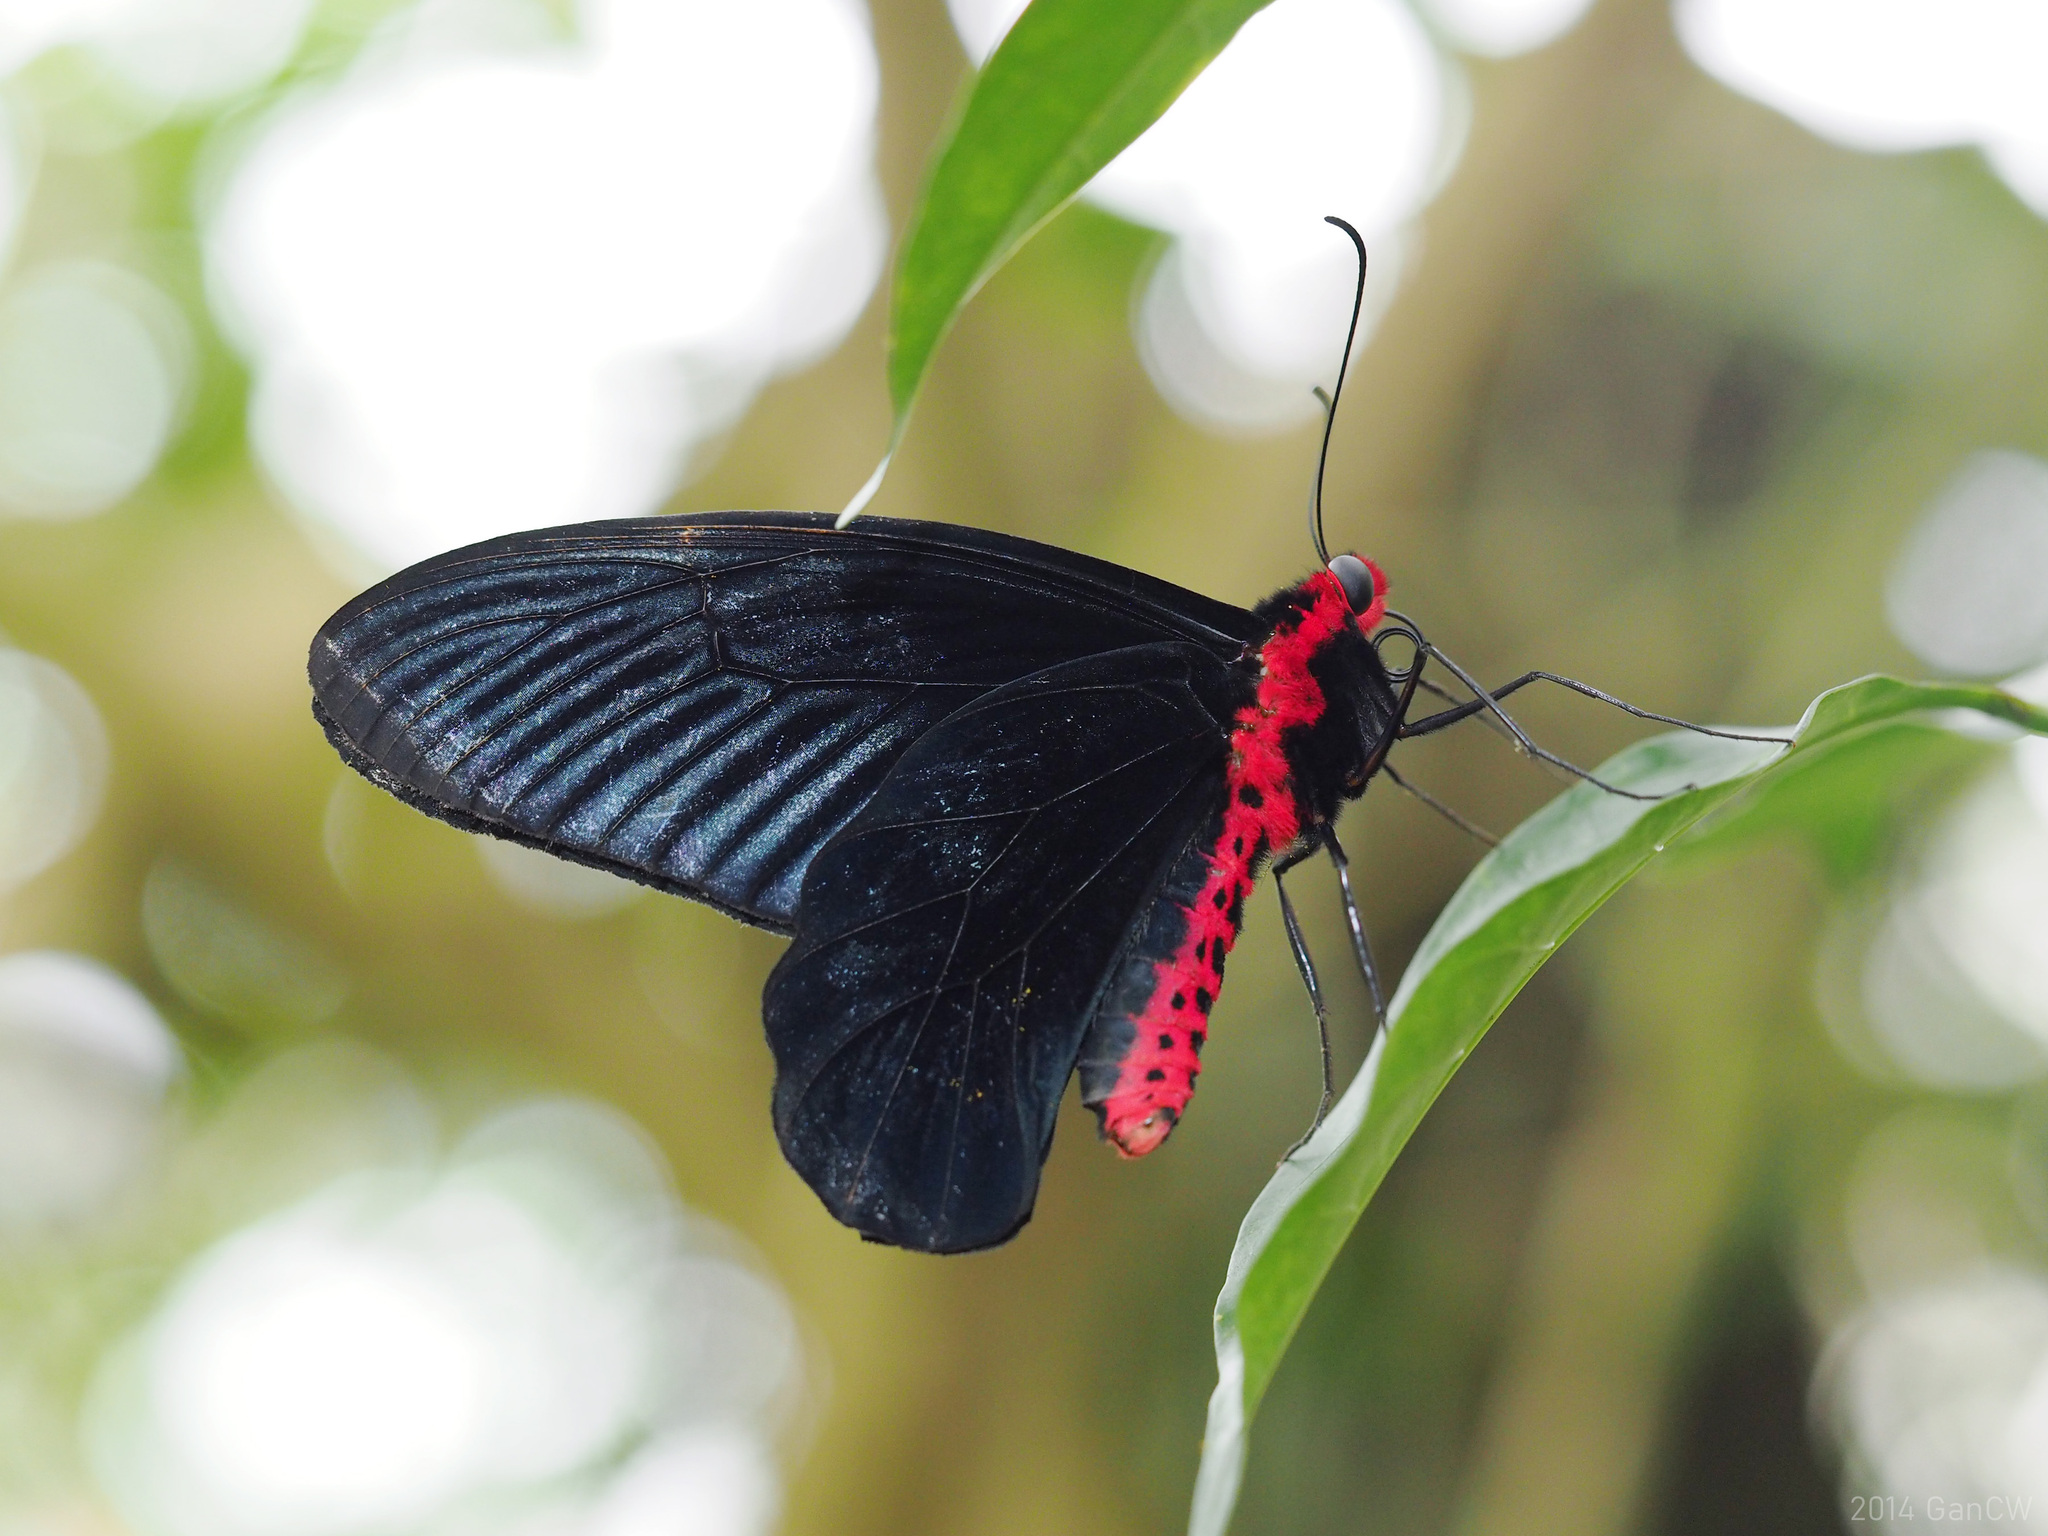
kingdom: Animalia
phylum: Arthropoda
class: Insecta
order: Lepidoptera
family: Papilionidae
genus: Atrophaneura
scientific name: Atrophaneura varuna
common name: Common batwing
